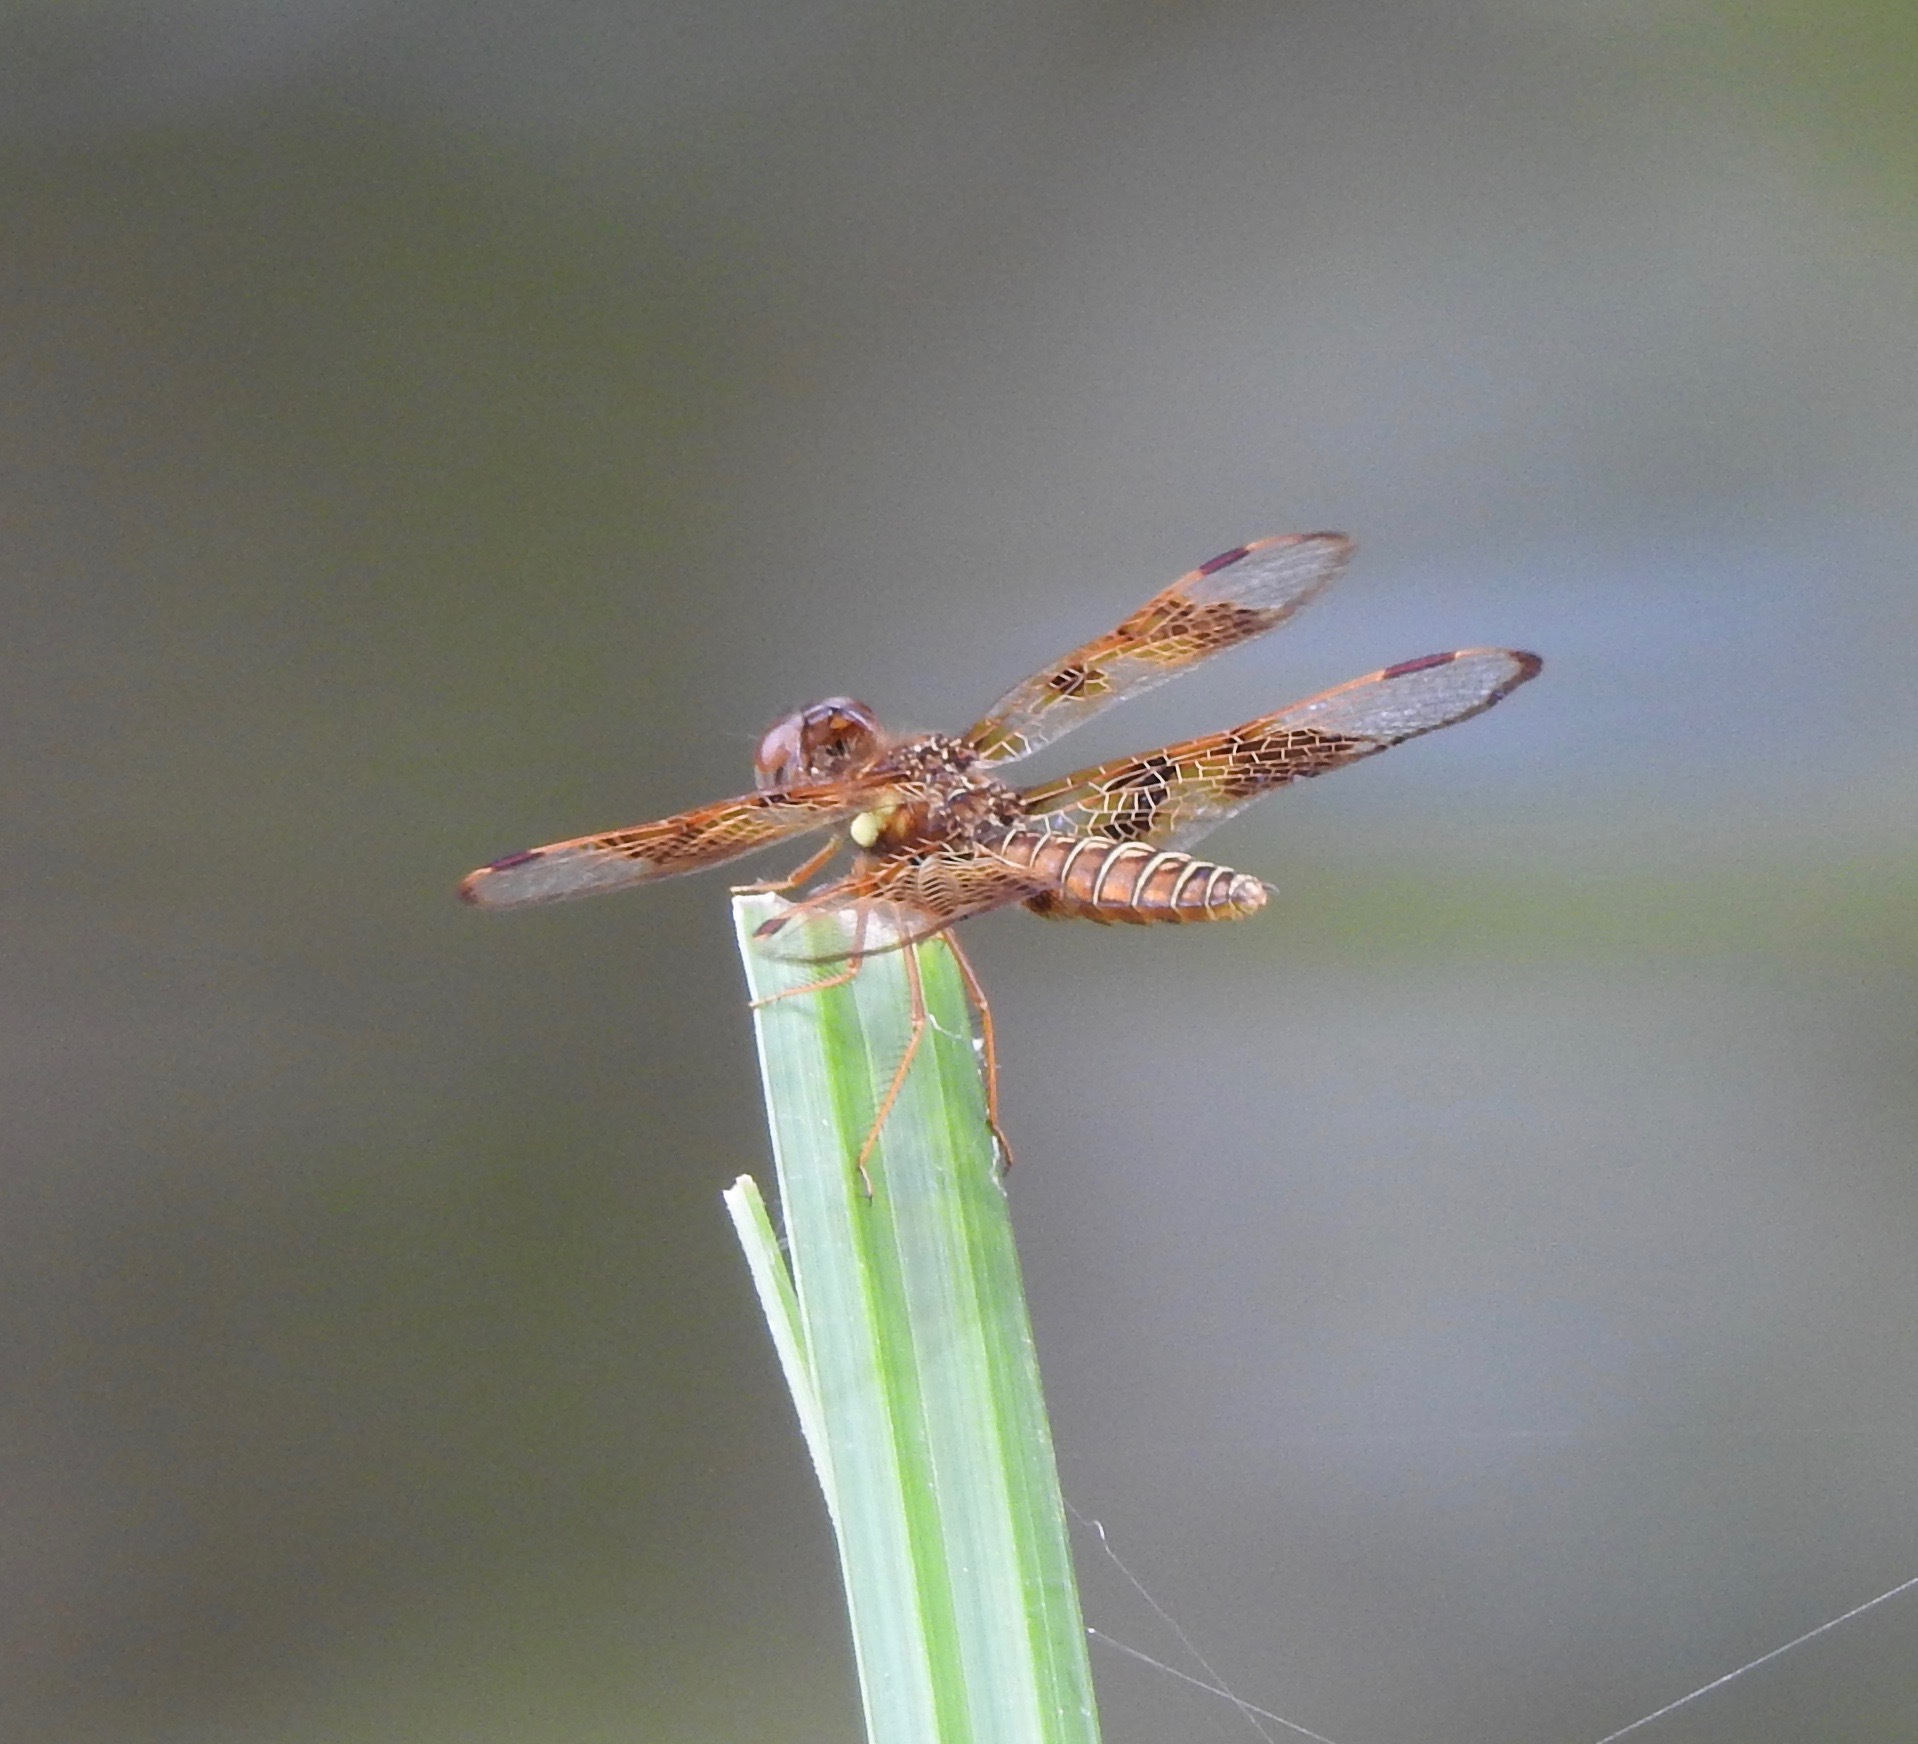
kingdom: Animalia
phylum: Arthropoda
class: Insecta
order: Odonata
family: Libellulidae
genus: Perithemis
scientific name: Perithemis tenera
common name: Eastern amberwing
